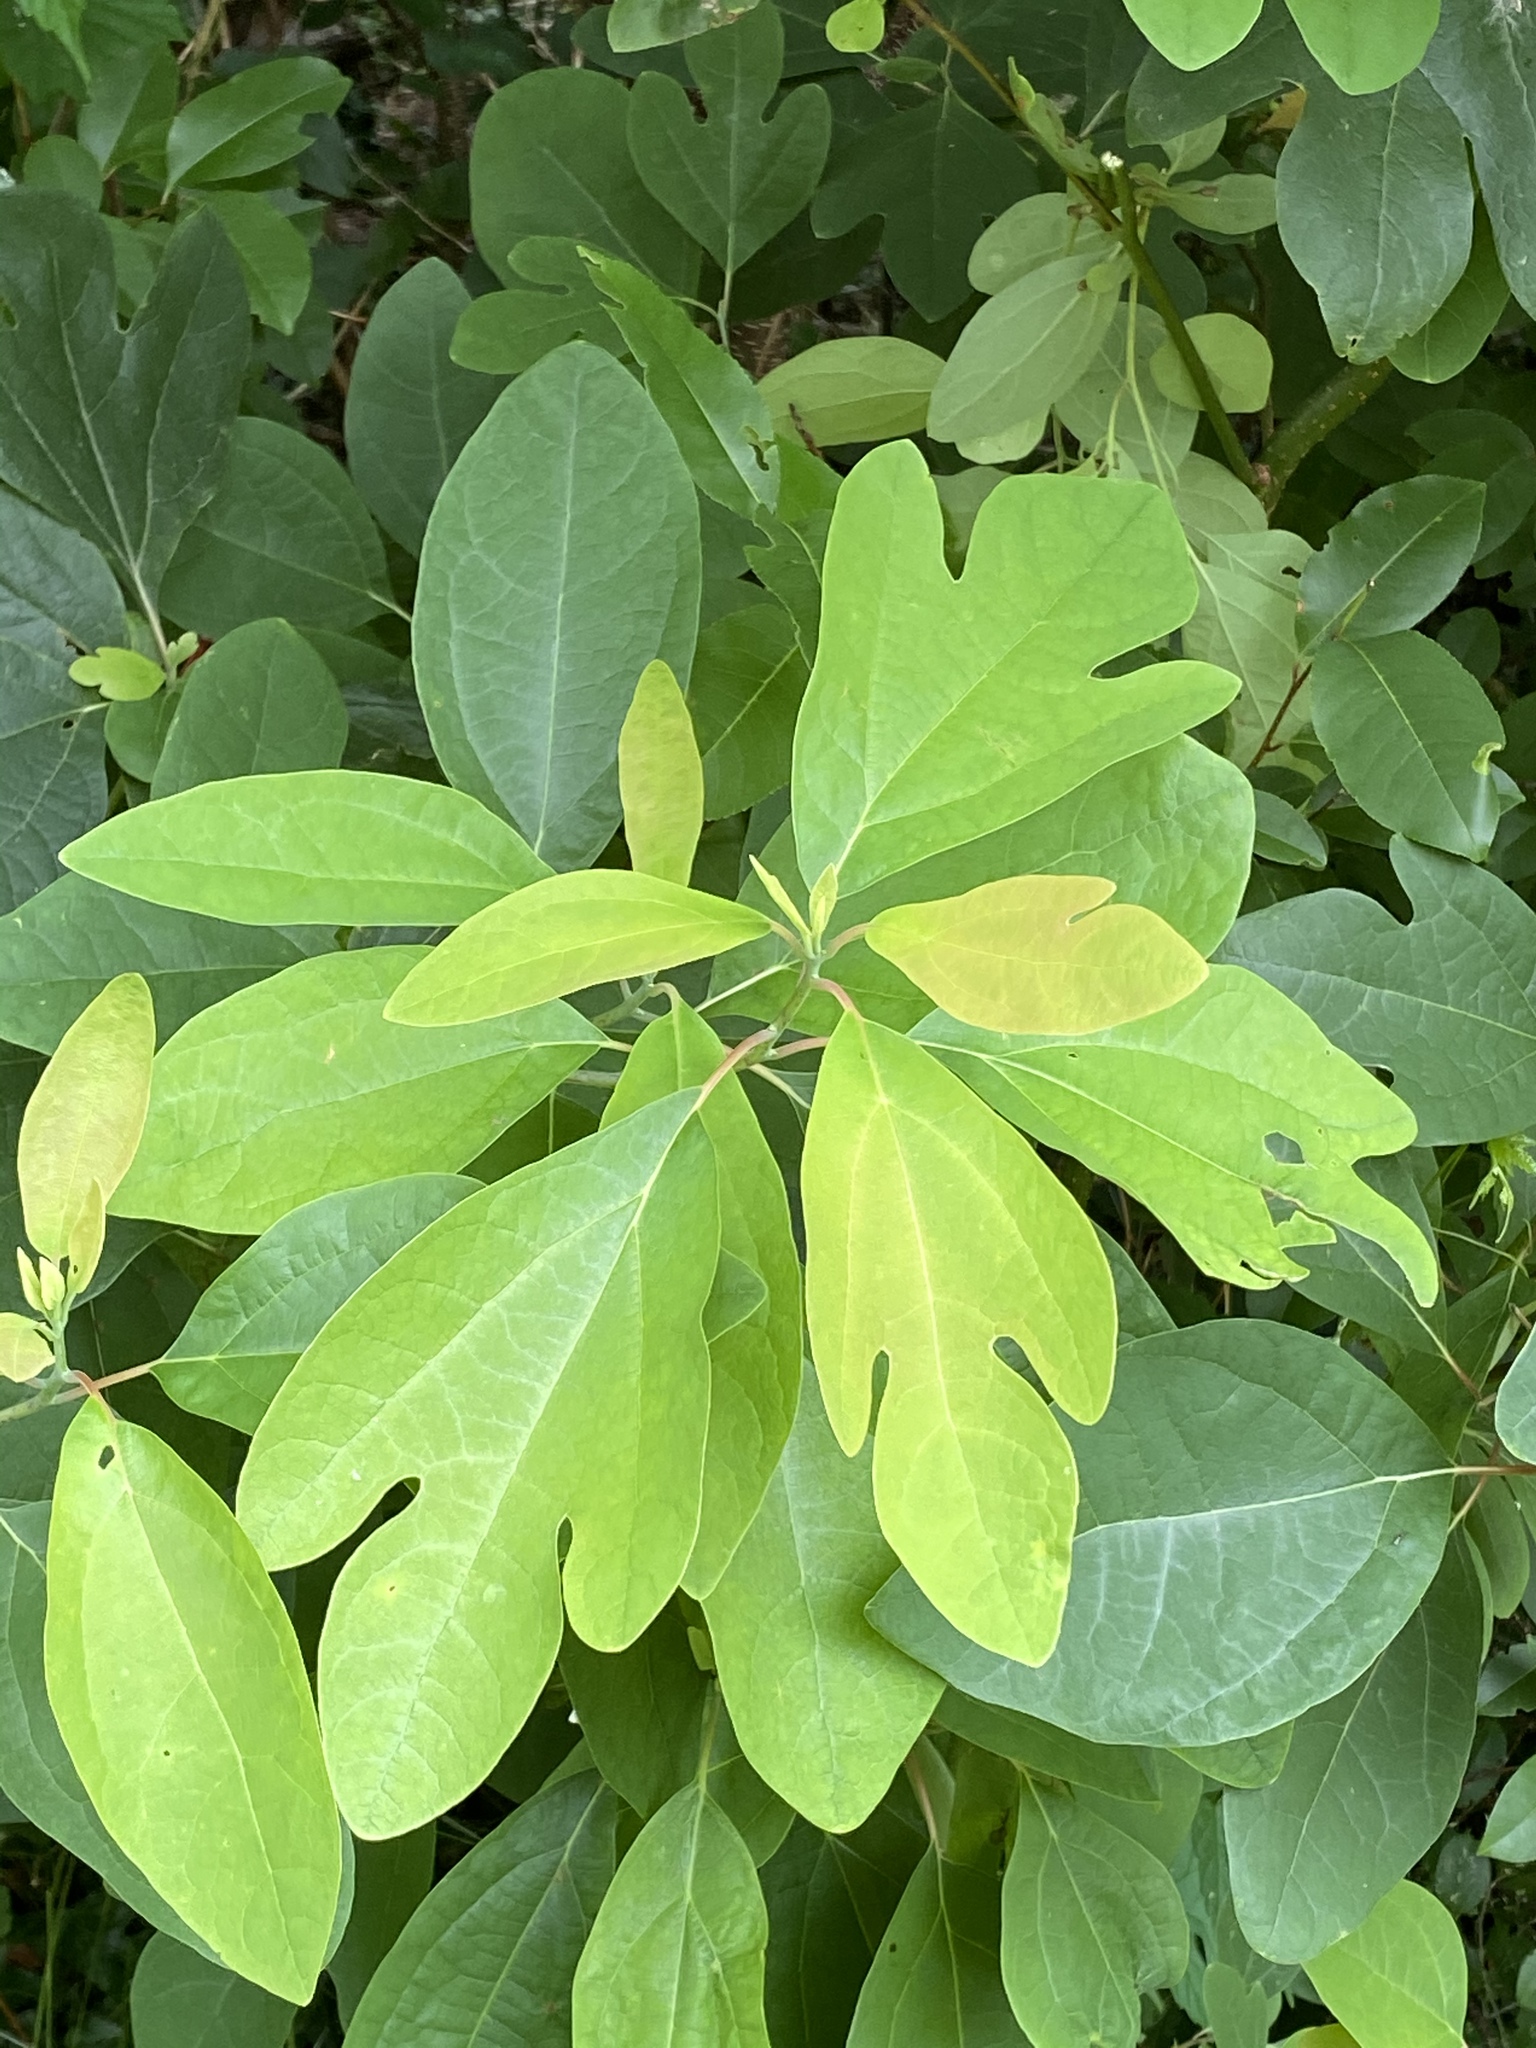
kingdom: Plantae
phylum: Tracheophyta
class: Magnoliopsida
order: Laurales
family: Lauraceae
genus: Sassafras
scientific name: Sassafras albidum
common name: Sassafras
